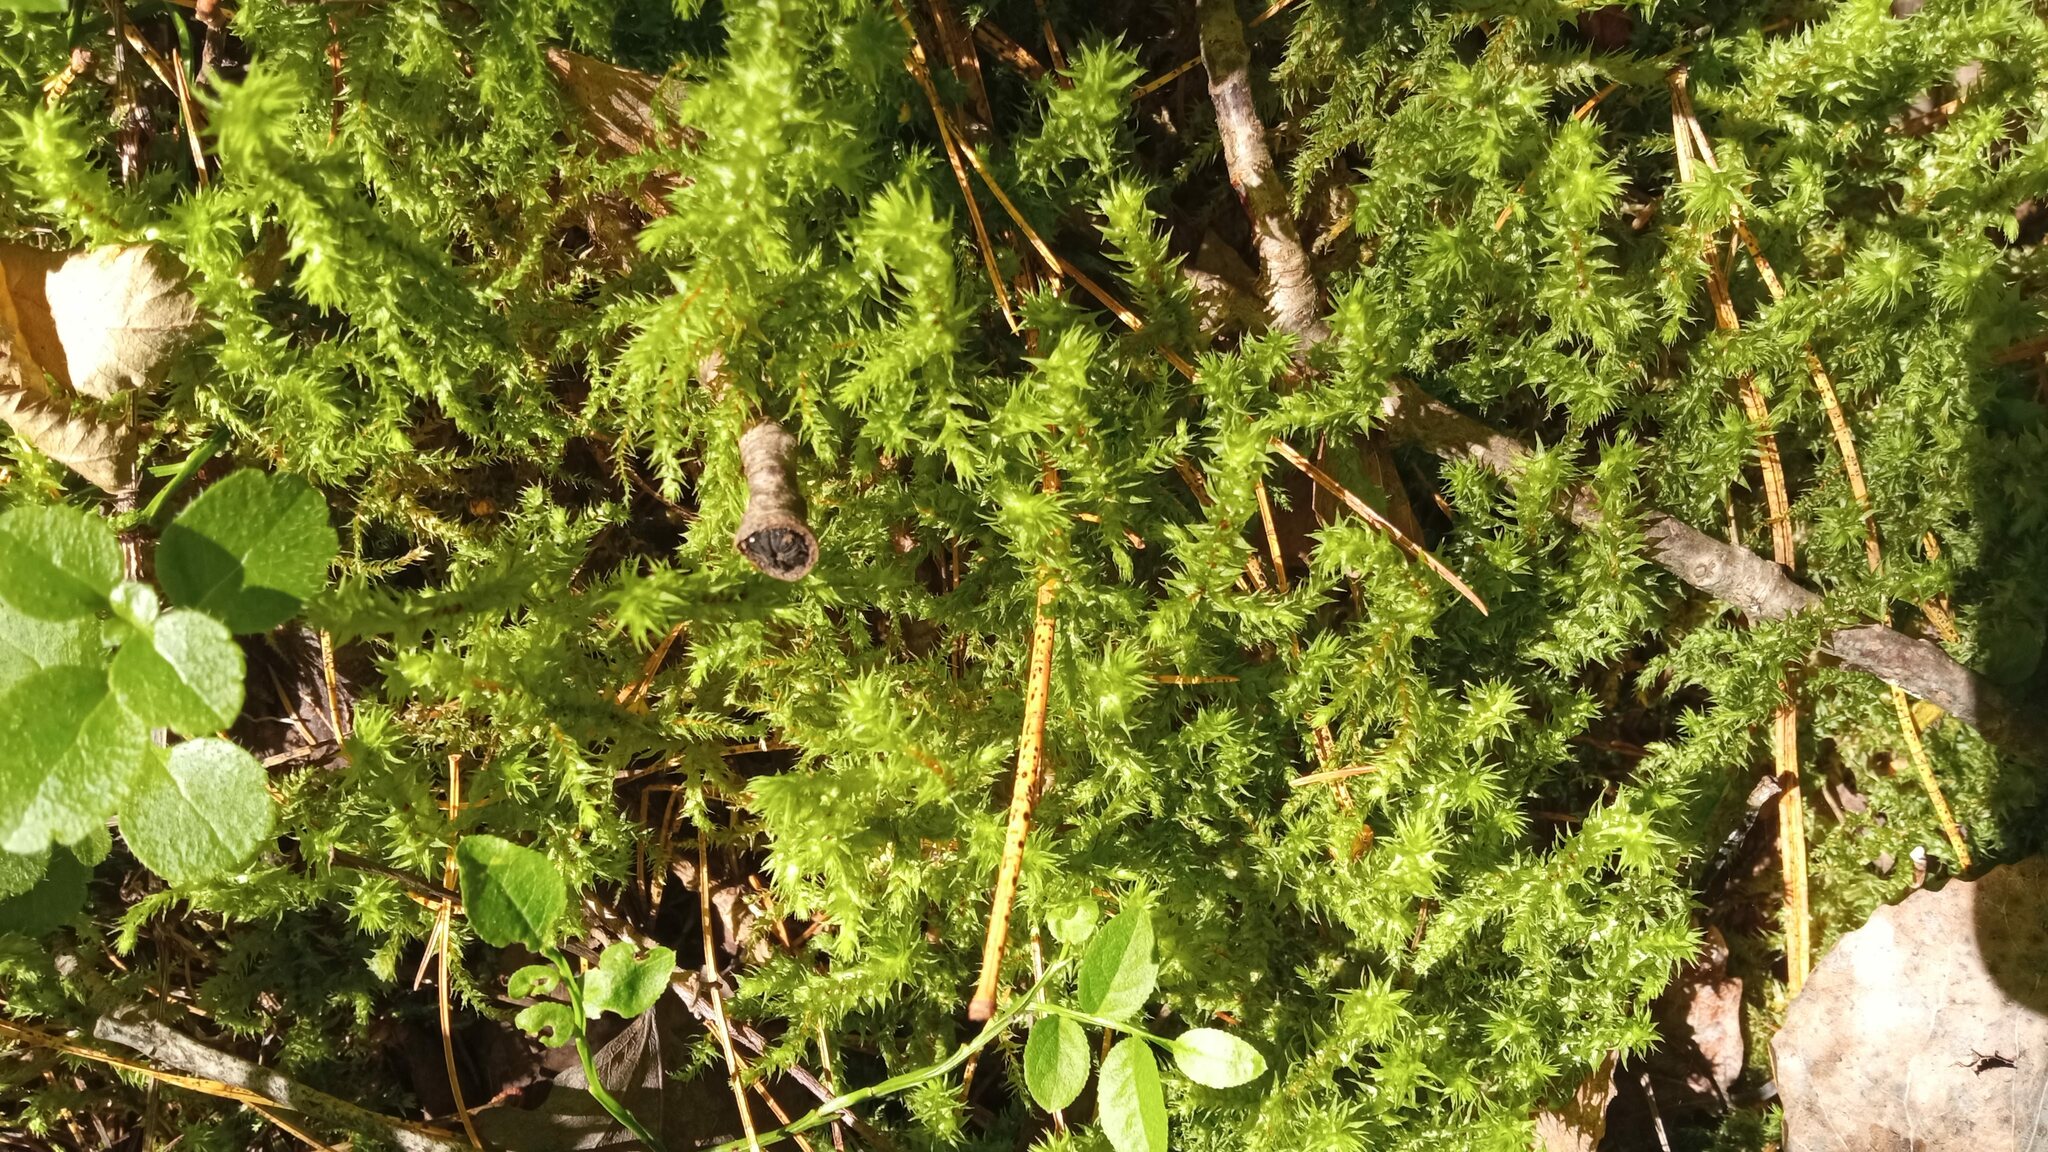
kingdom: Plantae
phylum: Bryophyta
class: Bryopsida
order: Hypnales
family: Hylocomiaceae
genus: Hylocomiadelphus
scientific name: Hylocomiadelphus triquetrus
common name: Rough goose neck moss
